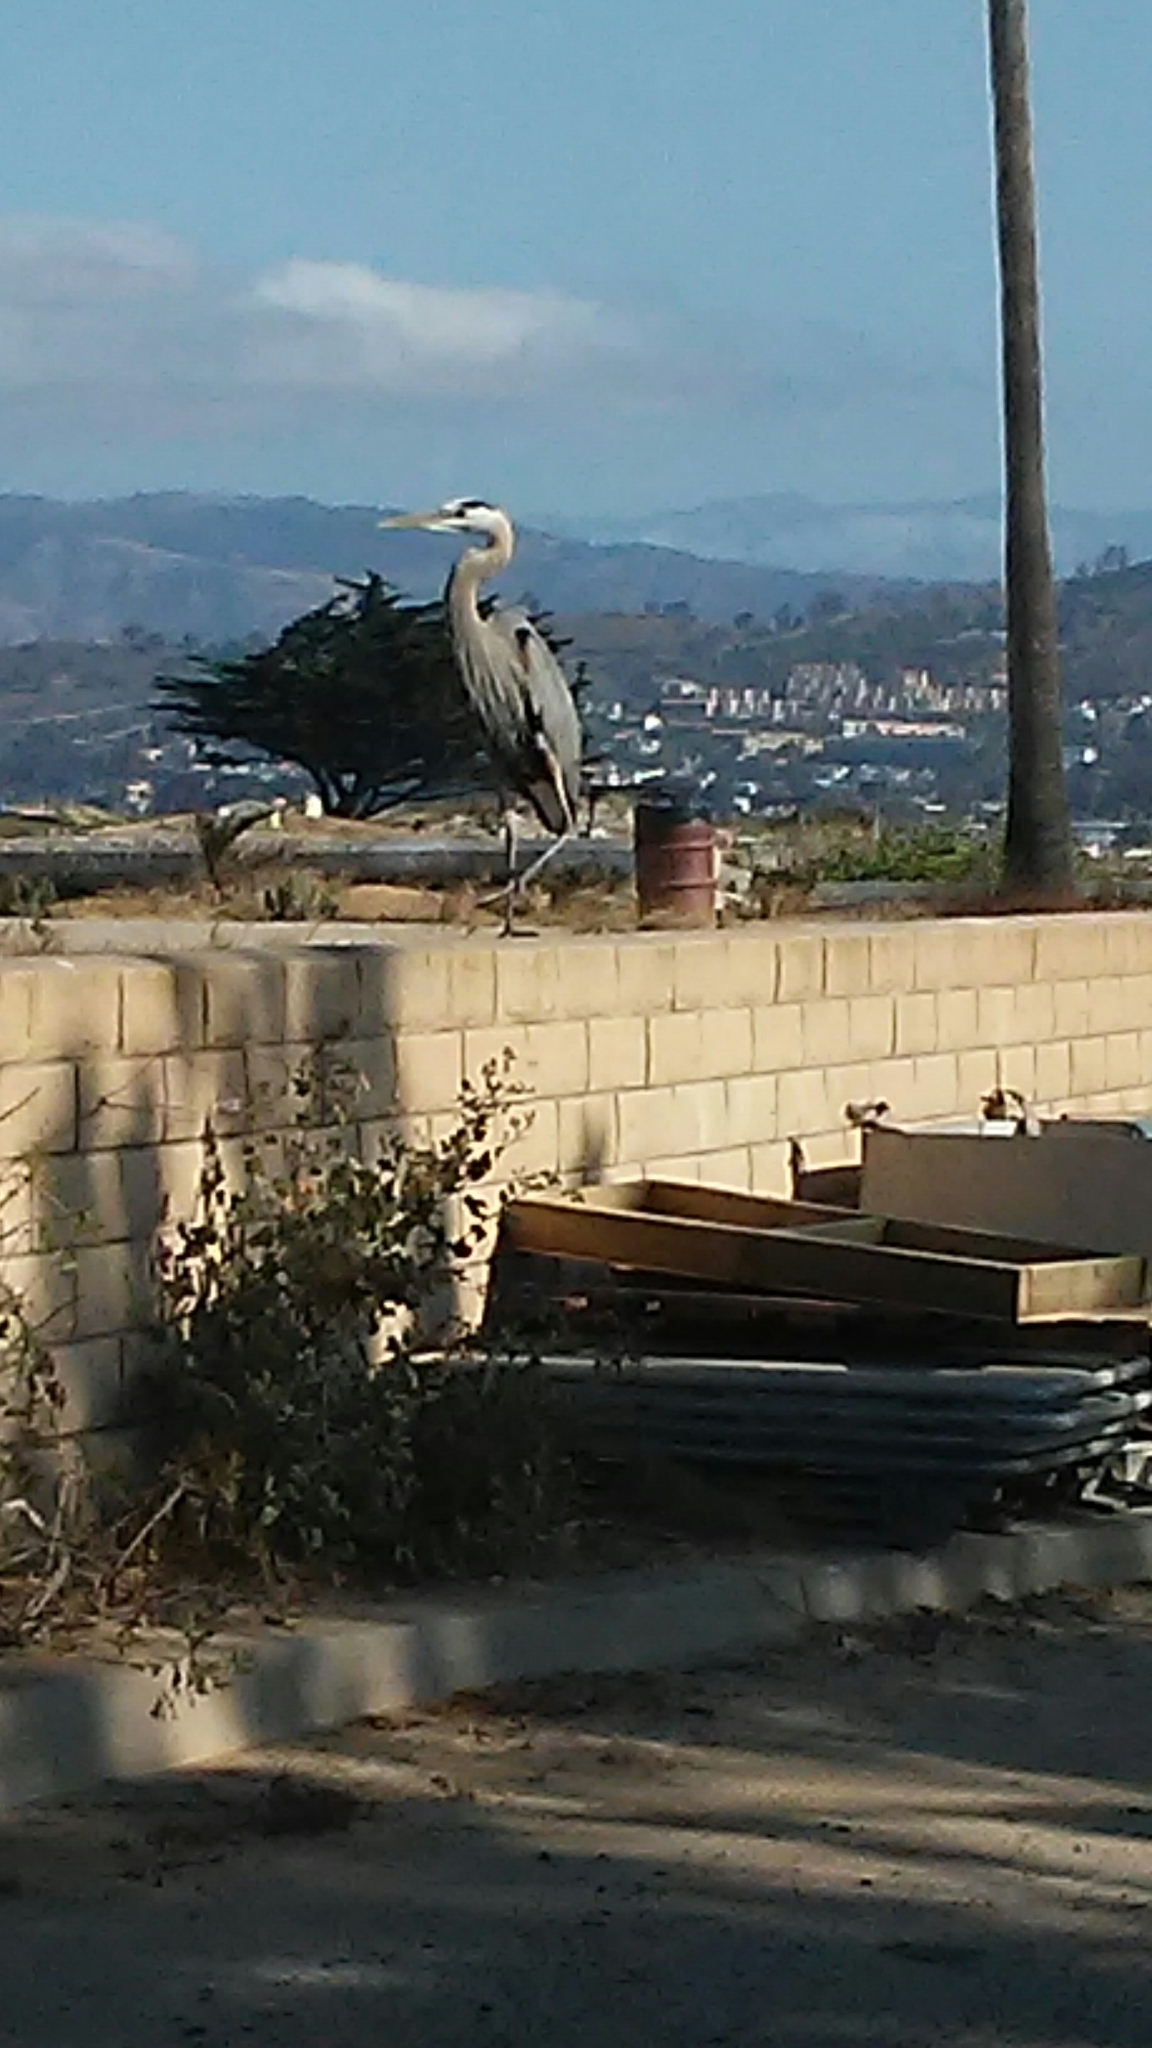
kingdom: Animalia
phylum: Chordata
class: Aves
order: Pelecaniformes
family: Ardeidae
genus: Ardea
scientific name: Ardea herodias
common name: Great blue heron
